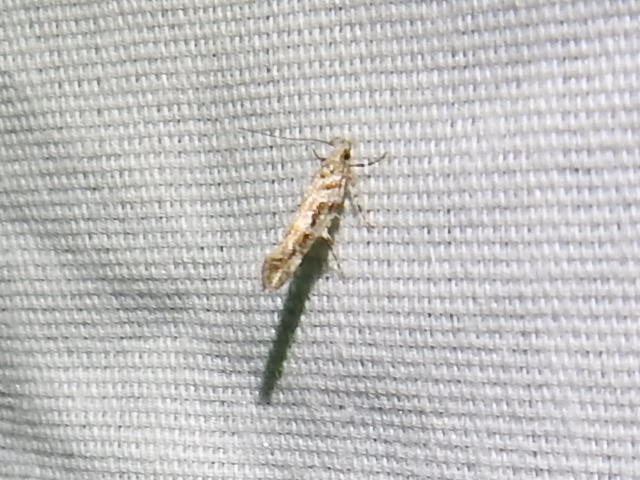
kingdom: Animalia
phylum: Arthropoda
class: Insecta
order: Lepidoptera
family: Gelechiidae
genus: Aristotelia
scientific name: Aristotelia roseosuffusella
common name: Pink-washed aristotelia moth
